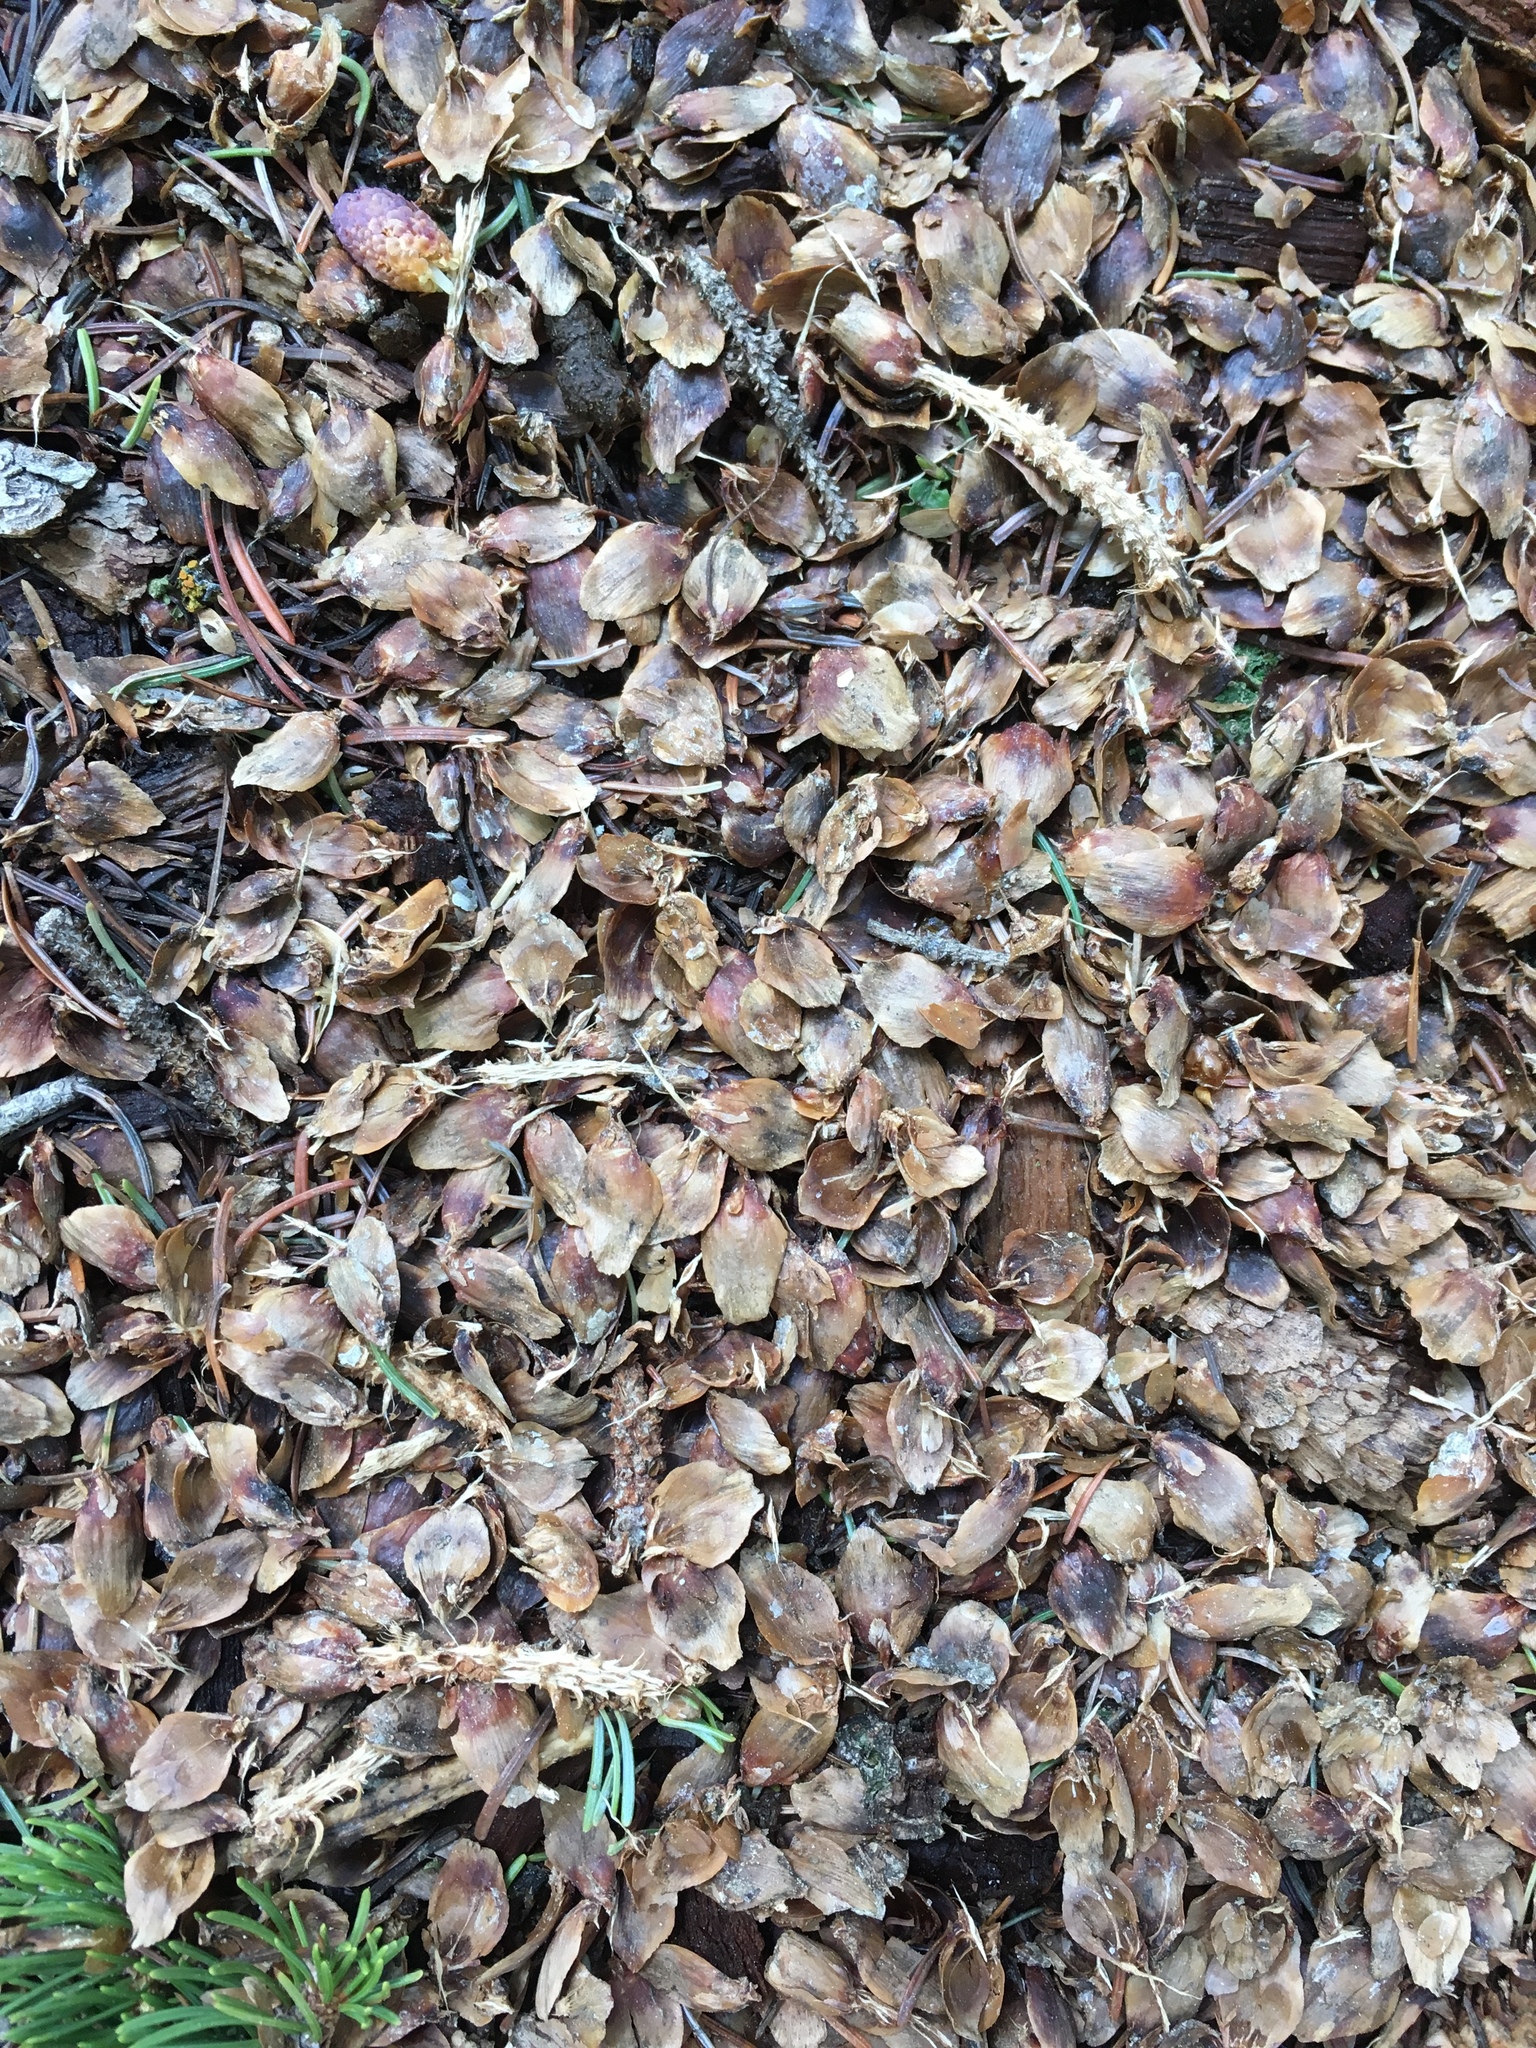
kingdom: Plantae
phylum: Tracheophyta
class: Pinopsida
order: Pinales
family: Pinaceae
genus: Abies
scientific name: Abies concolor
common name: Colorado fir
